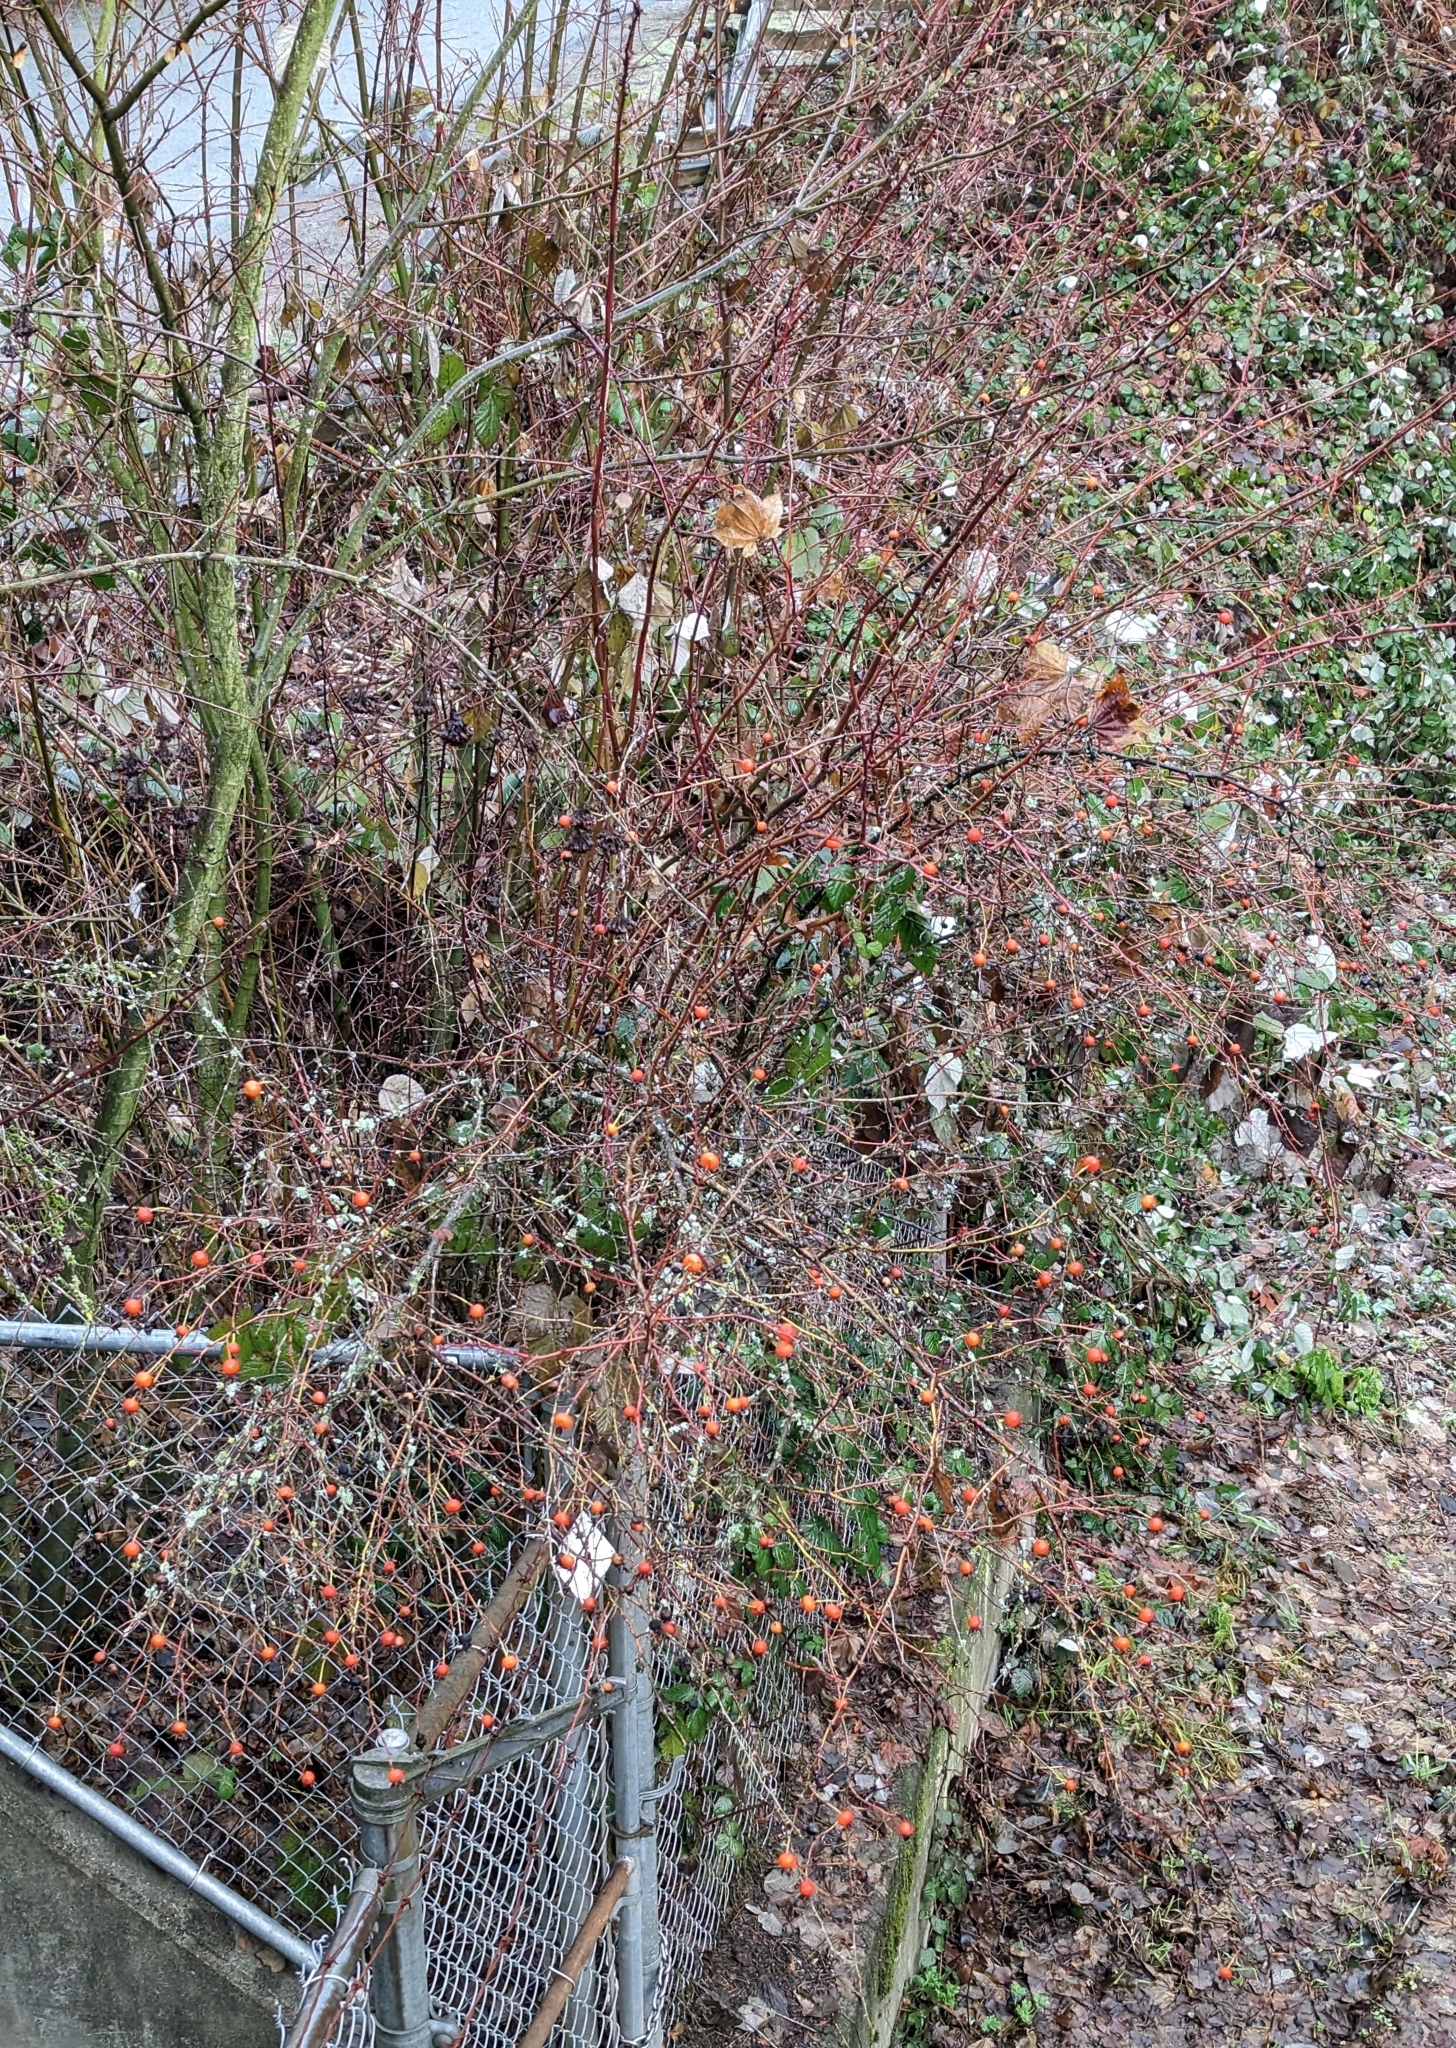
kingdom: Plantae
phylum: Tracheophyta
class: Magnoliopsida
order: Rosales
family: Rosaceae
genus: Rosa
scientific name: Rosa nutkana
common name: Nootka rose
